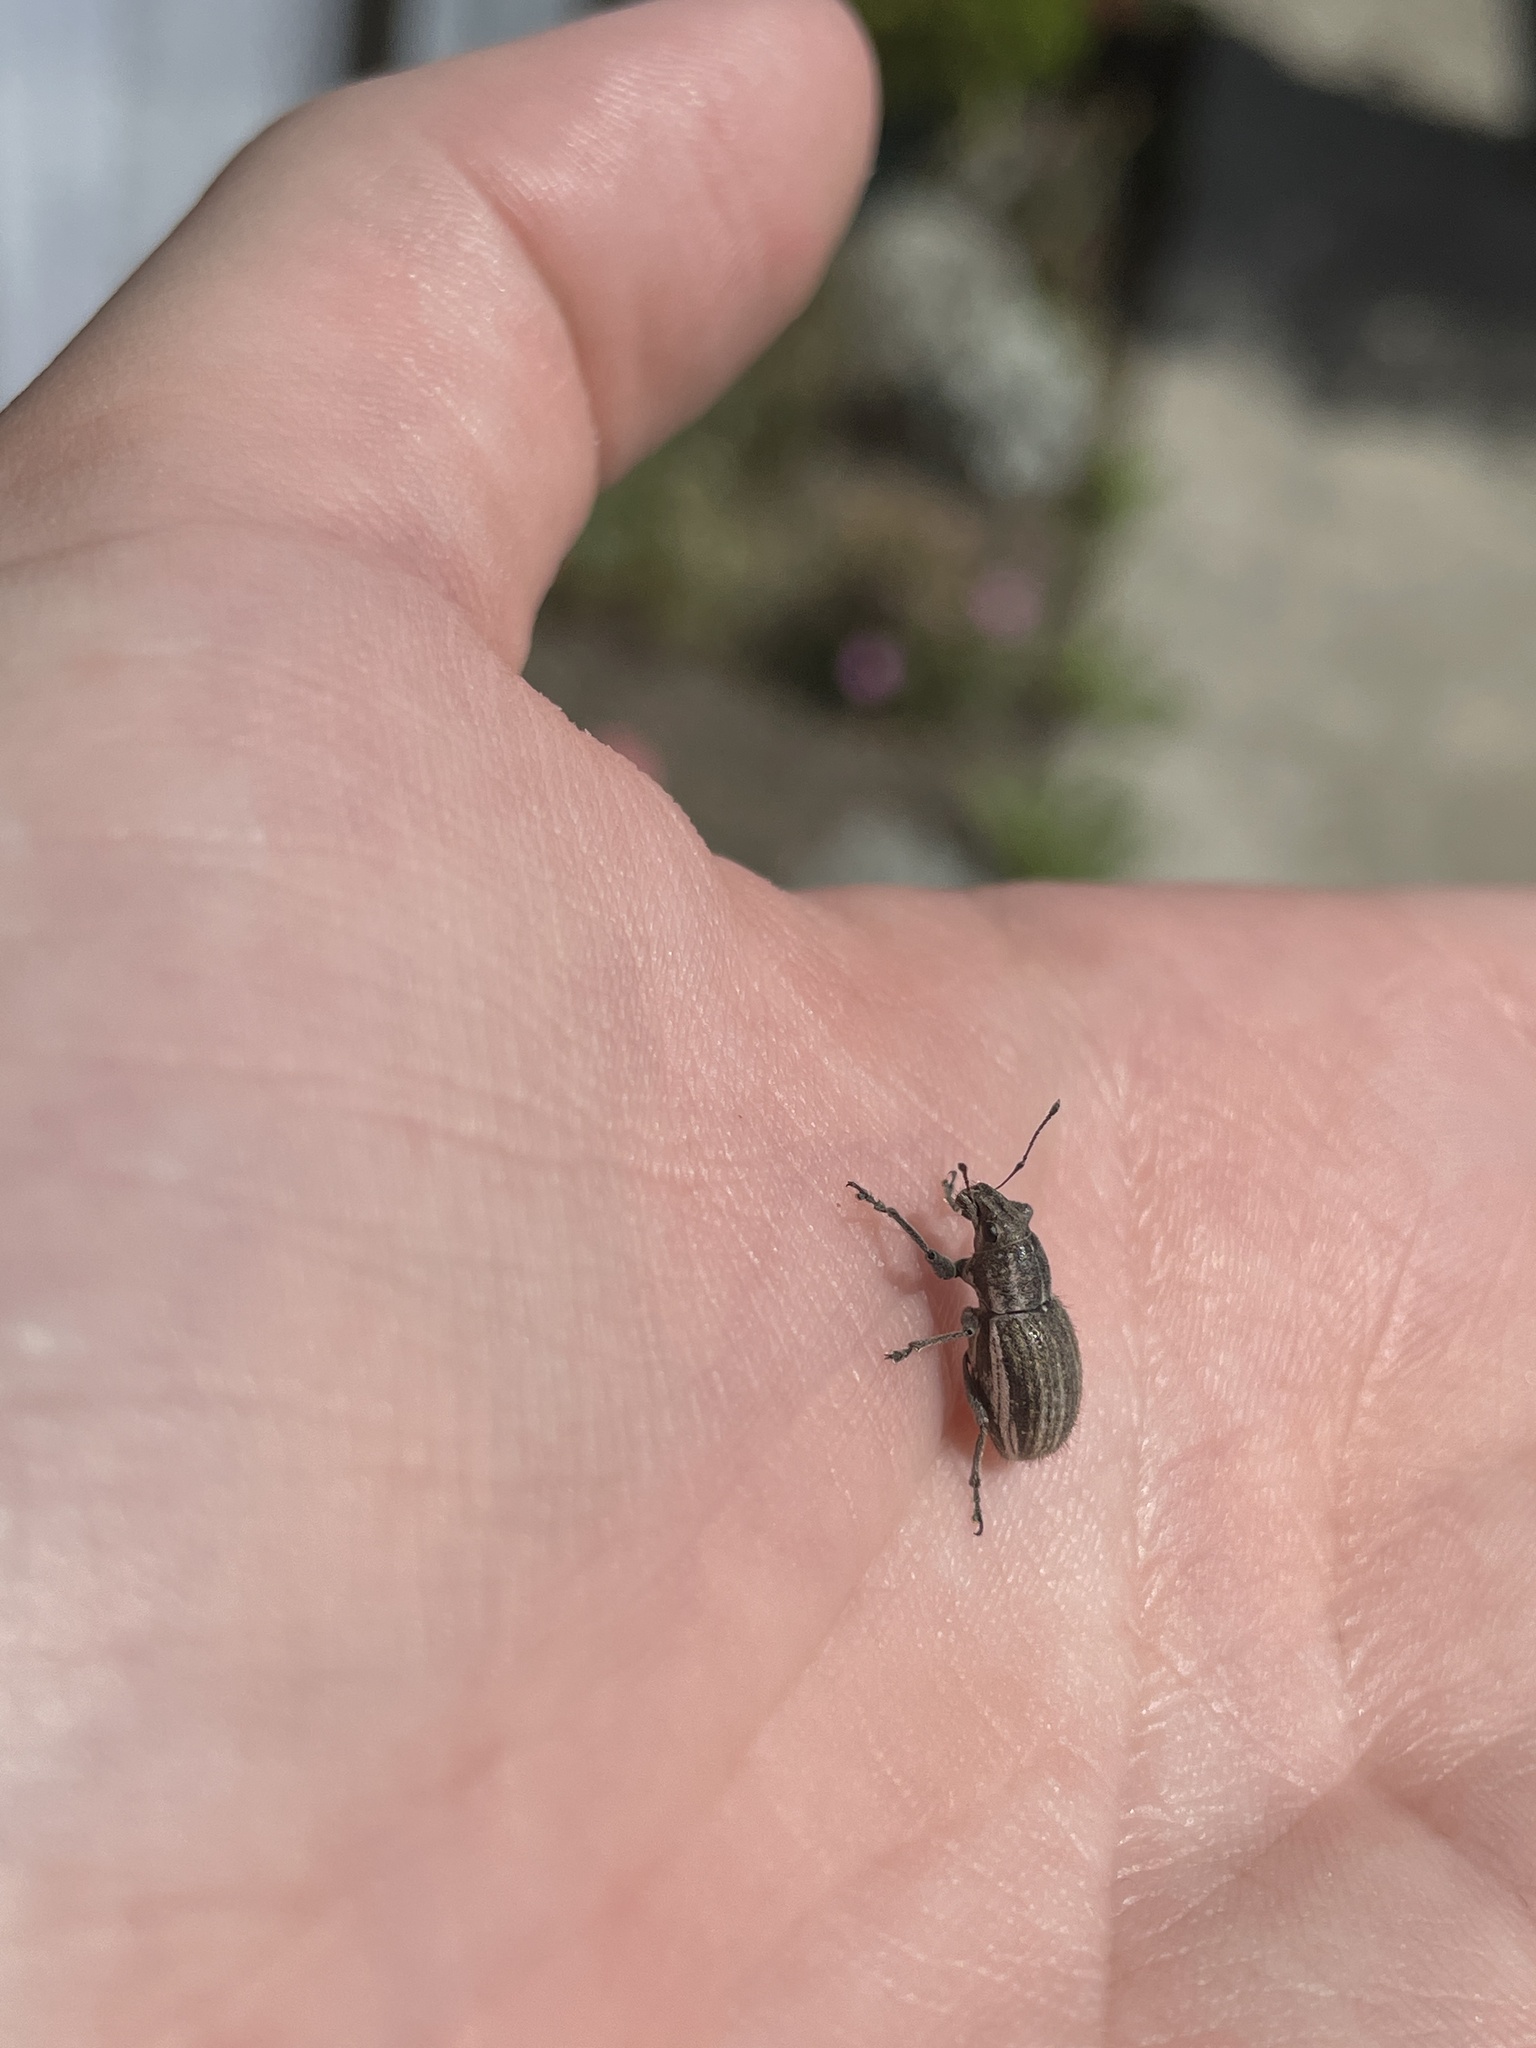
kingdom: Animalia
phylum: Arthropoda
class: Insecta
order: Coleoptera
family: Curculionidae
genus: Naupactus
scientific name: Naupactus leucoloma
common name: Whitefringed beetle
